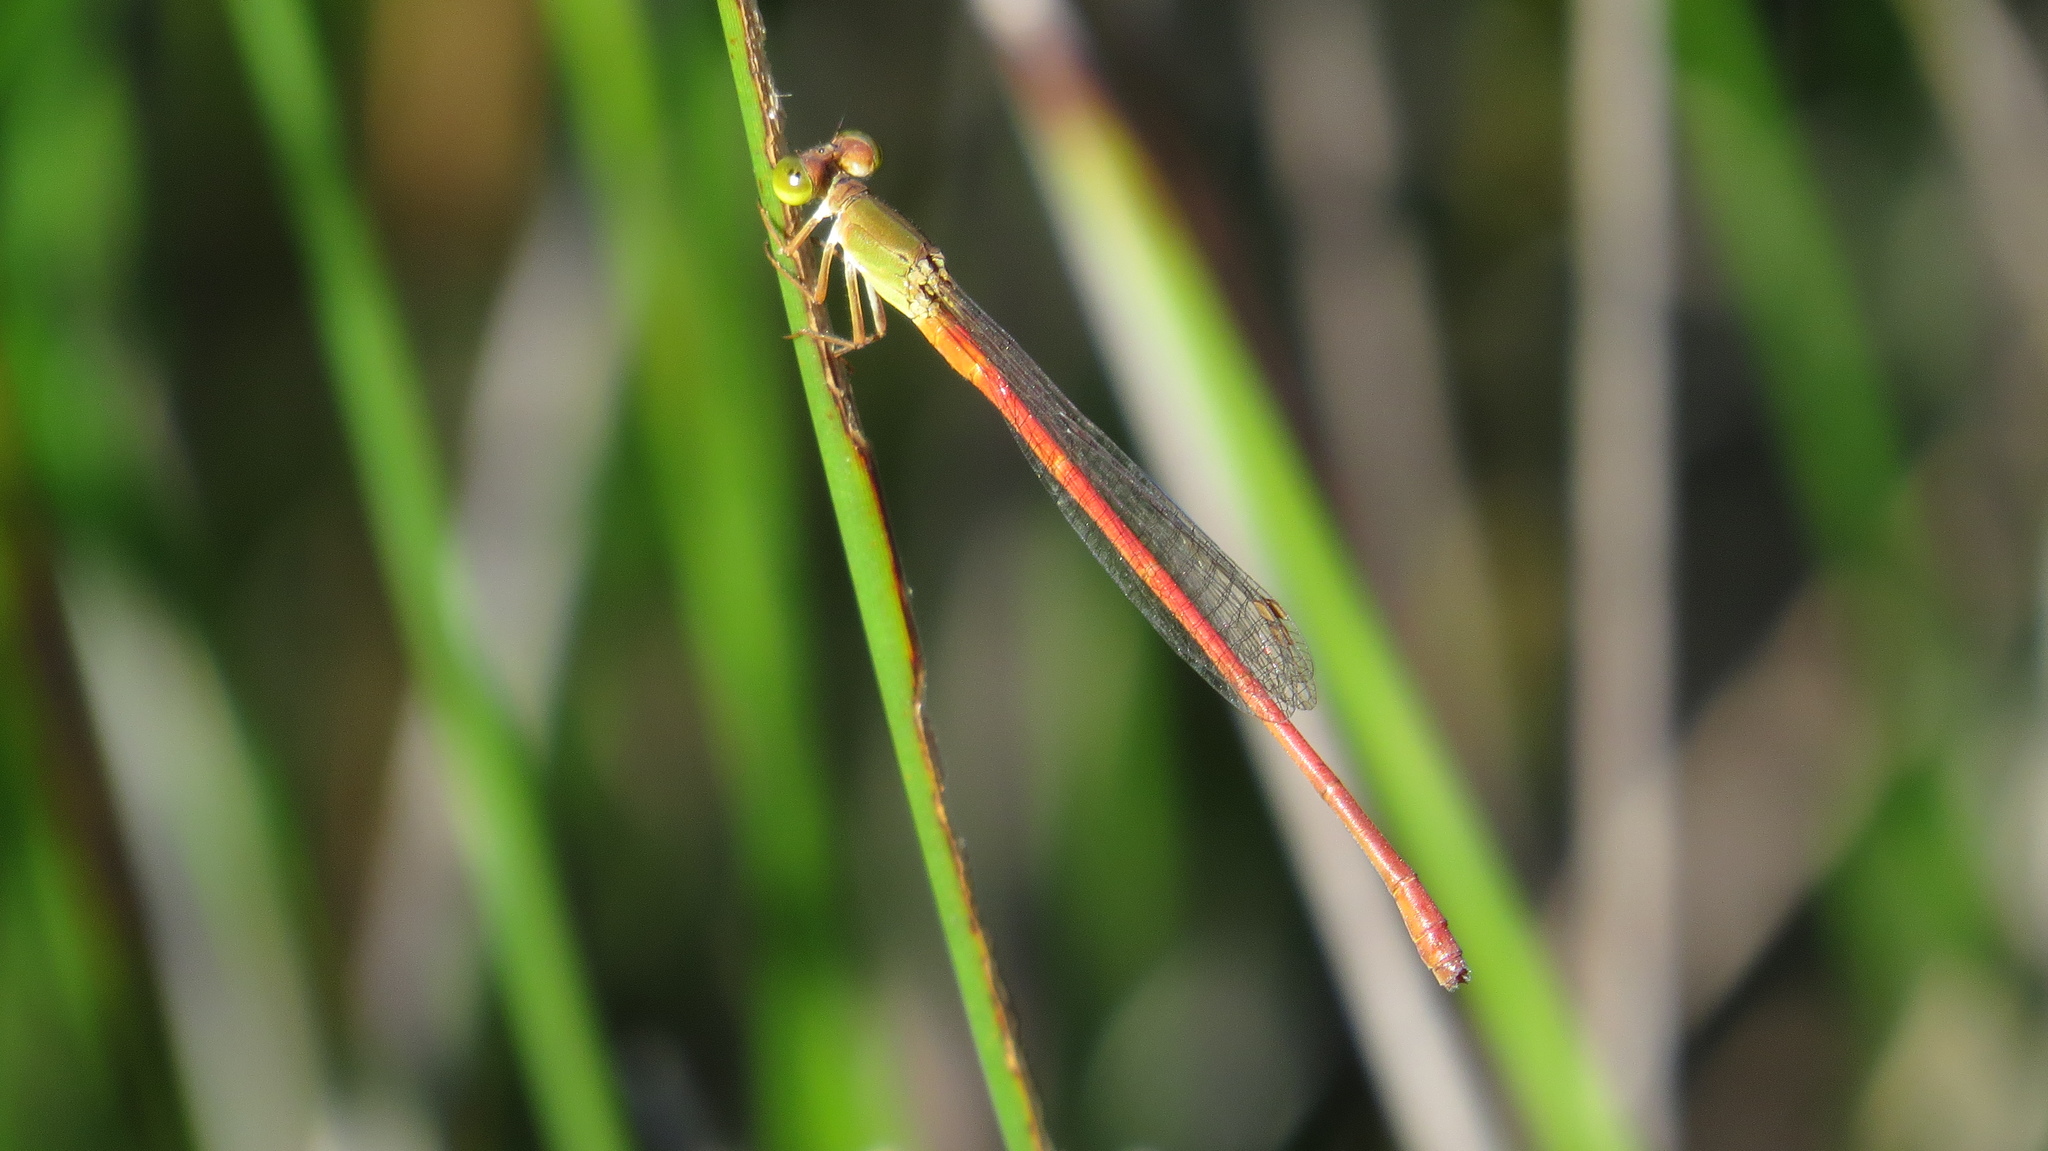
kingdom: Animalia
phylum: Arthropoda
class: Insecta
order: Odonata
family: Coenagrionidae
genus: Ceriagrion
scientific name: Ceriagrion aeruginosum
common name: Redtail
